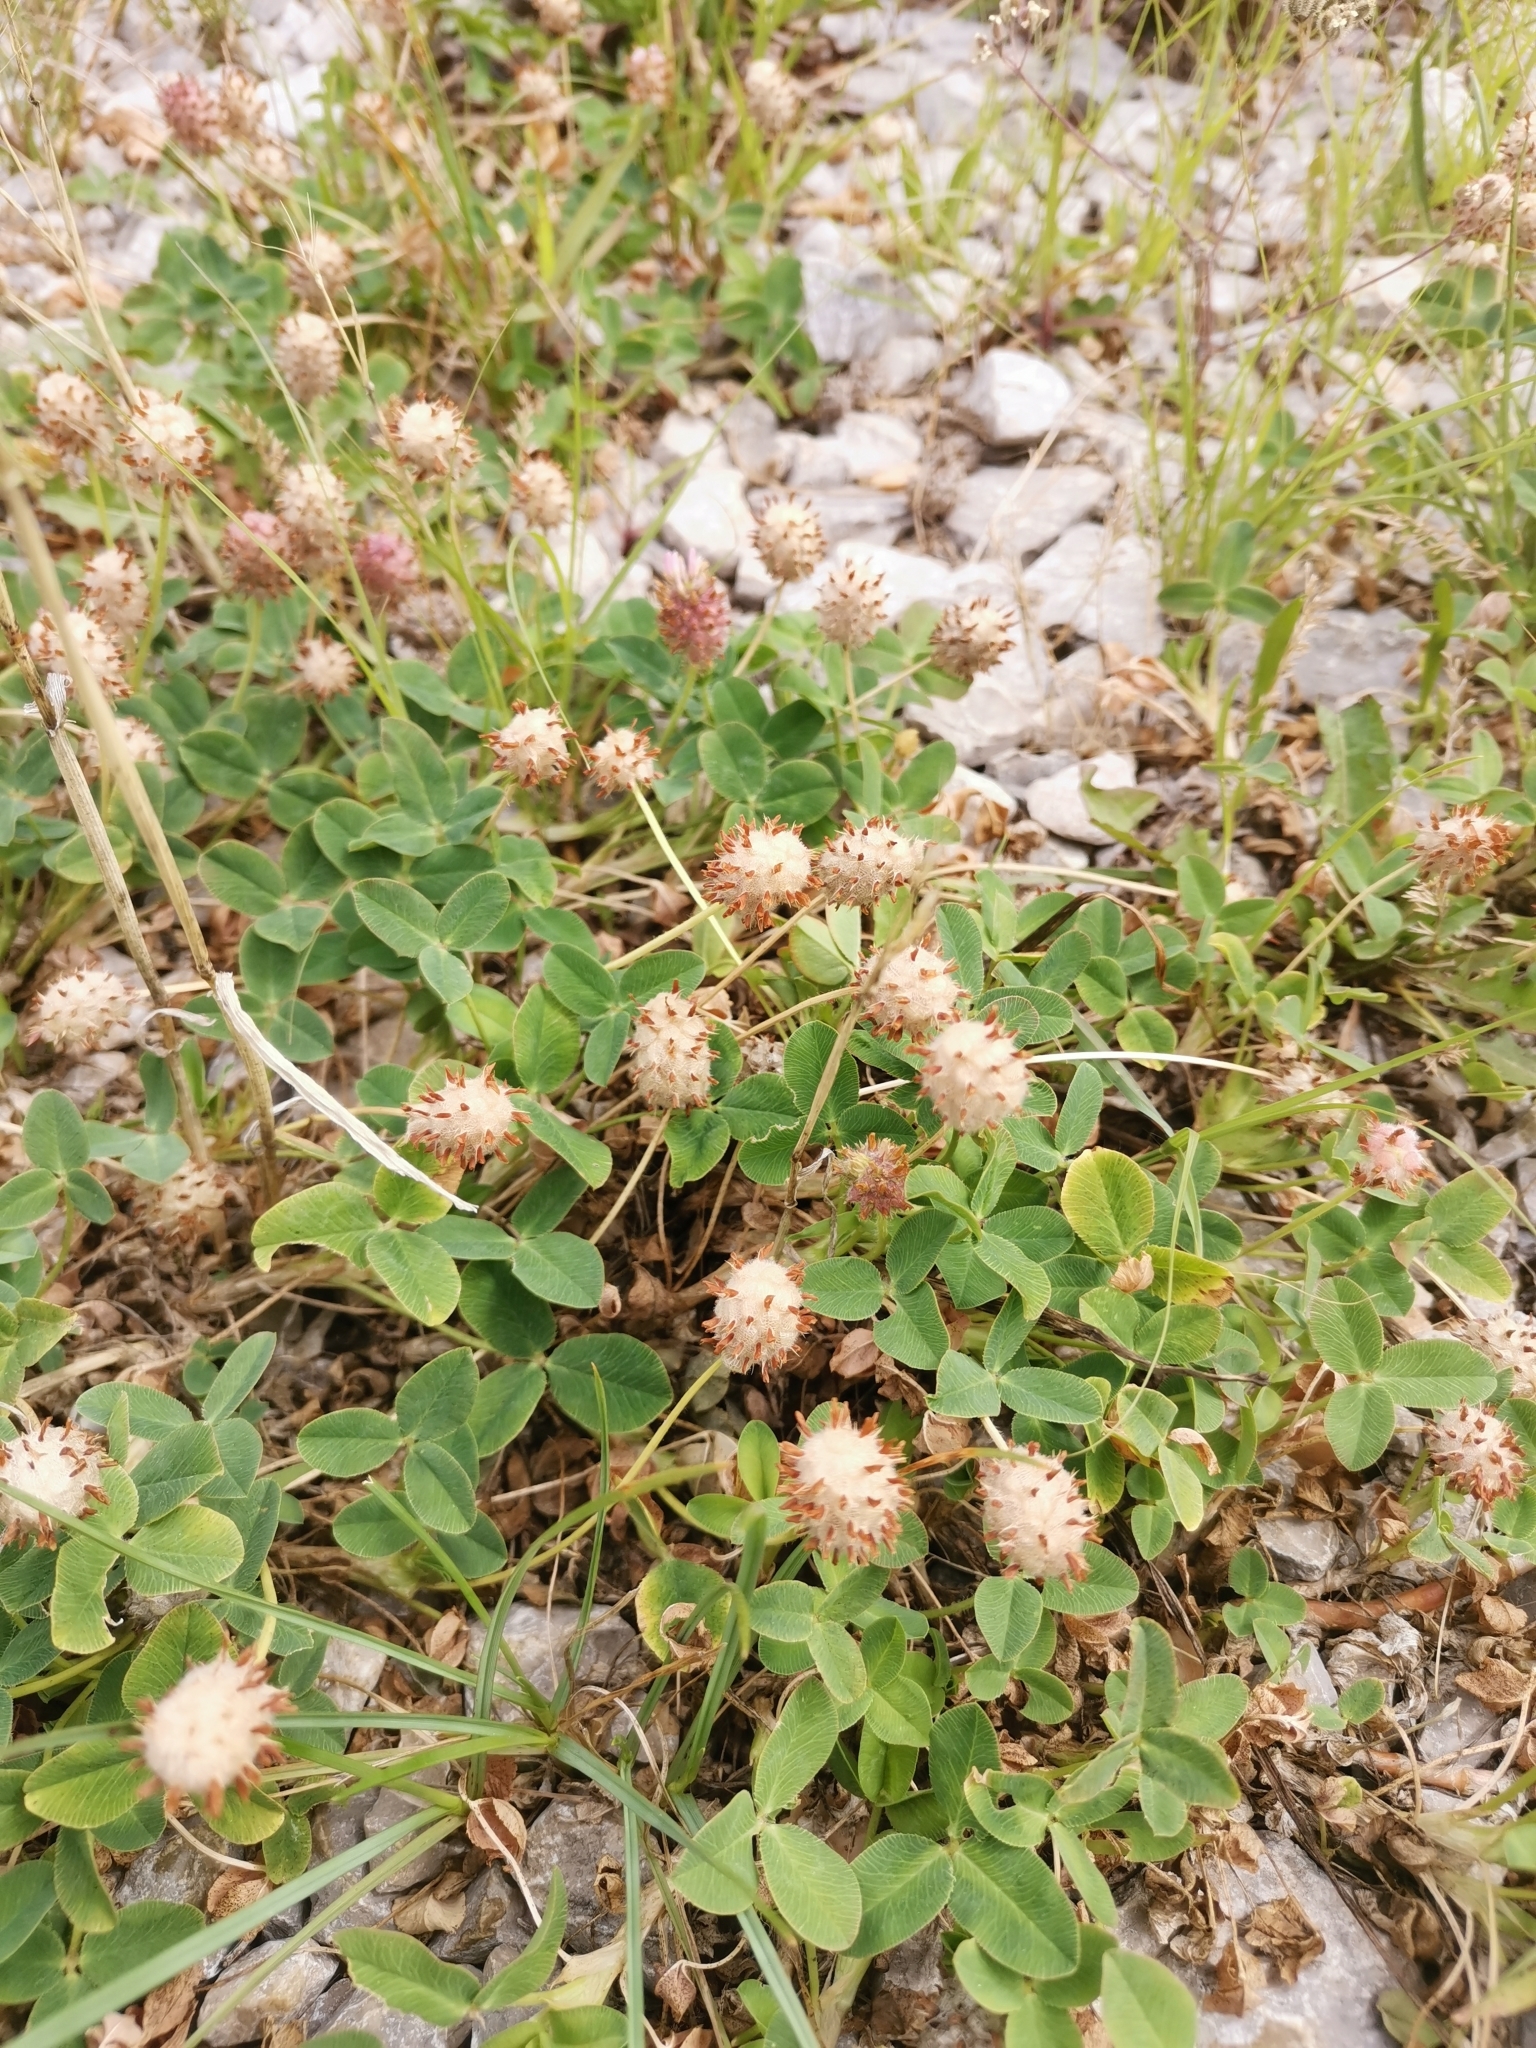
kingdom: Plantae
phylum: Tracheophyta
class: Magnoliopsida
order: Fabales
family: Fabaceae
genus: Trifolium
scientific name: Trifolium fragiferum
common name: Strawberry clover
